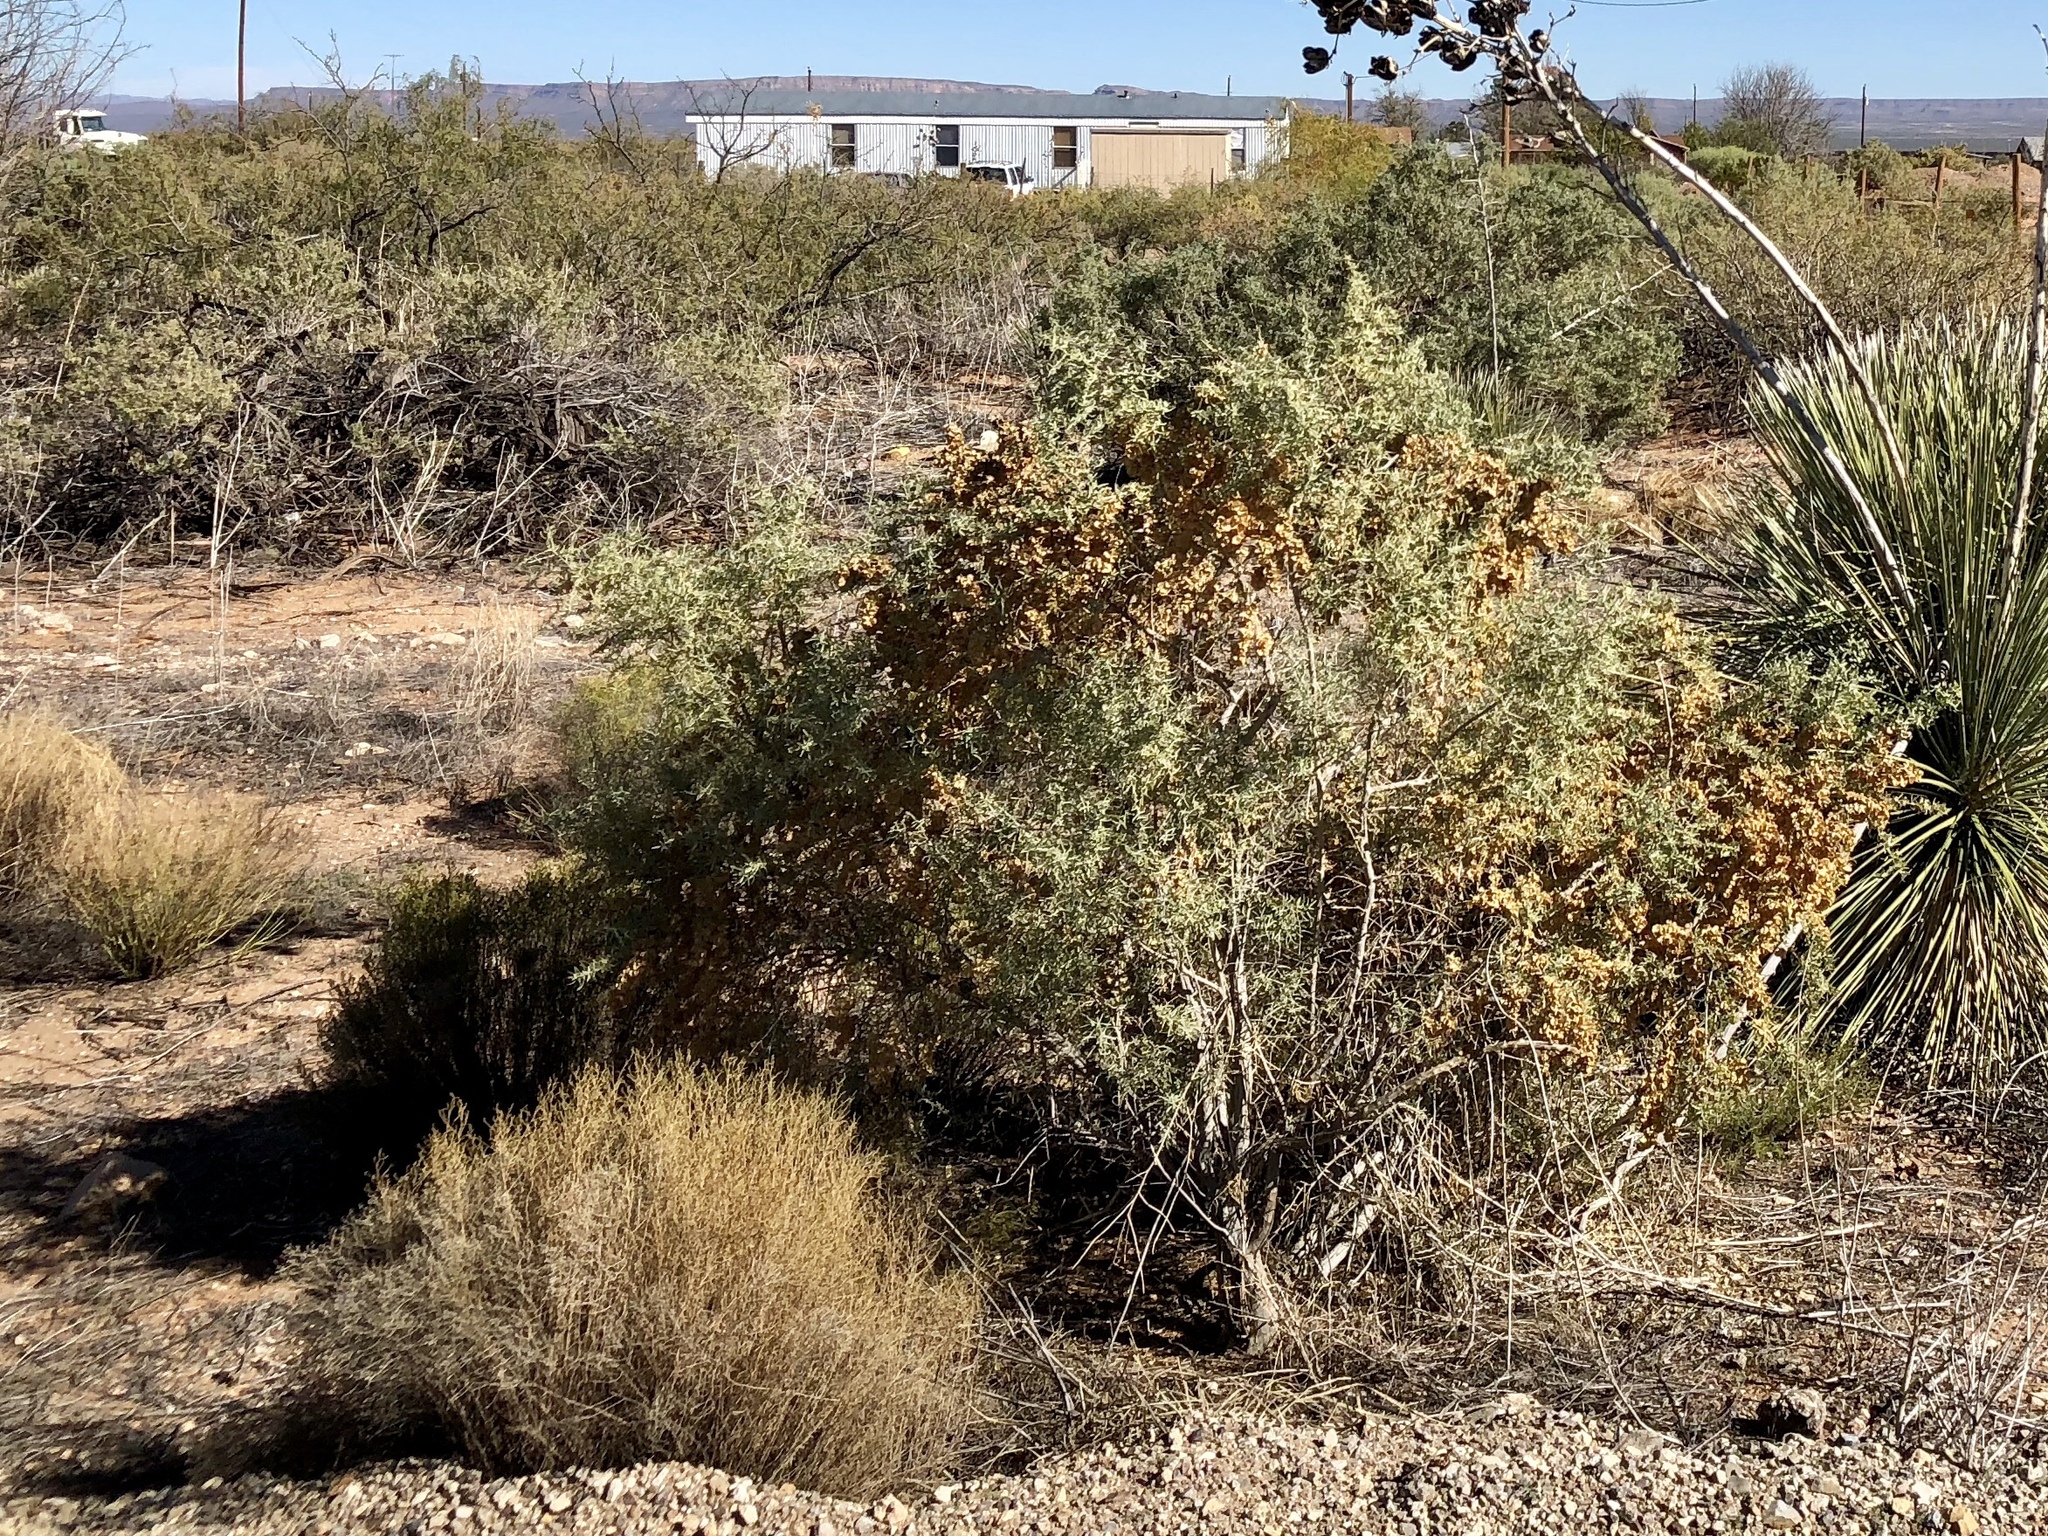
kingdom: Plantae
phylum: Tracheophyta
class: Magnoliopsida
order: Caryophyllales
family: Amaranthaceae
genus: Atriplex
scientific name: Atriplex canescens
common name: Four-wing saltbush
